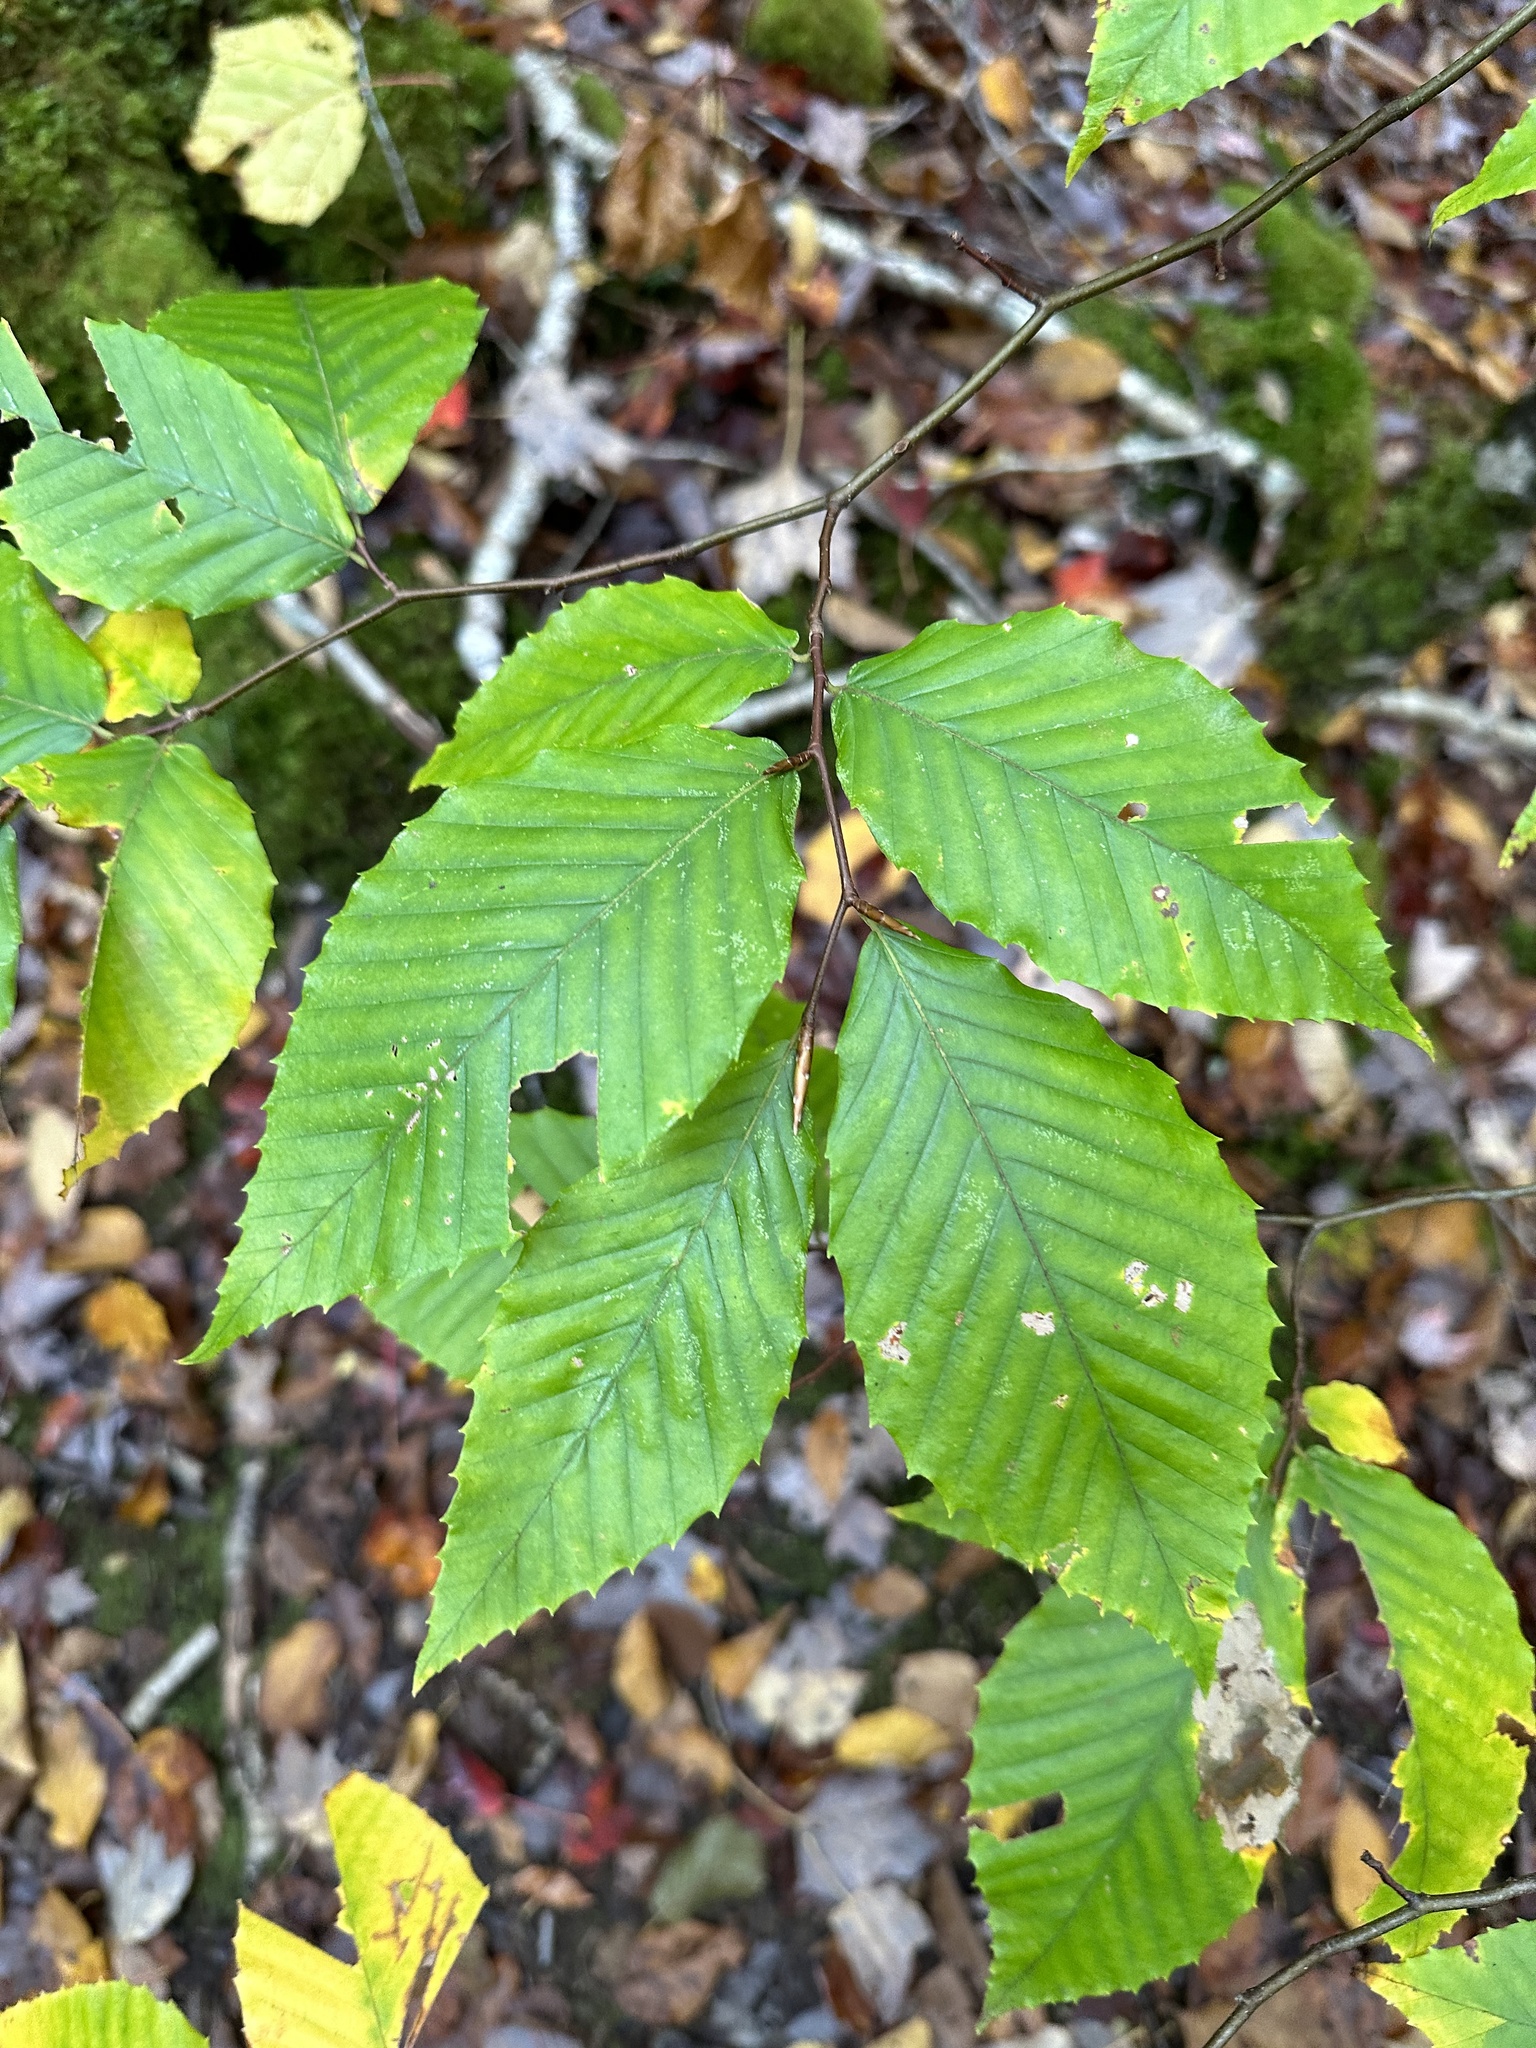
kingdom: Plantae
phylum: Tracheophyta
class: Magnoliopsida
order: Fagales
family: Fagaceae
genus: Fagus
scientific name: Fagus grandifolia
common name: American beech
